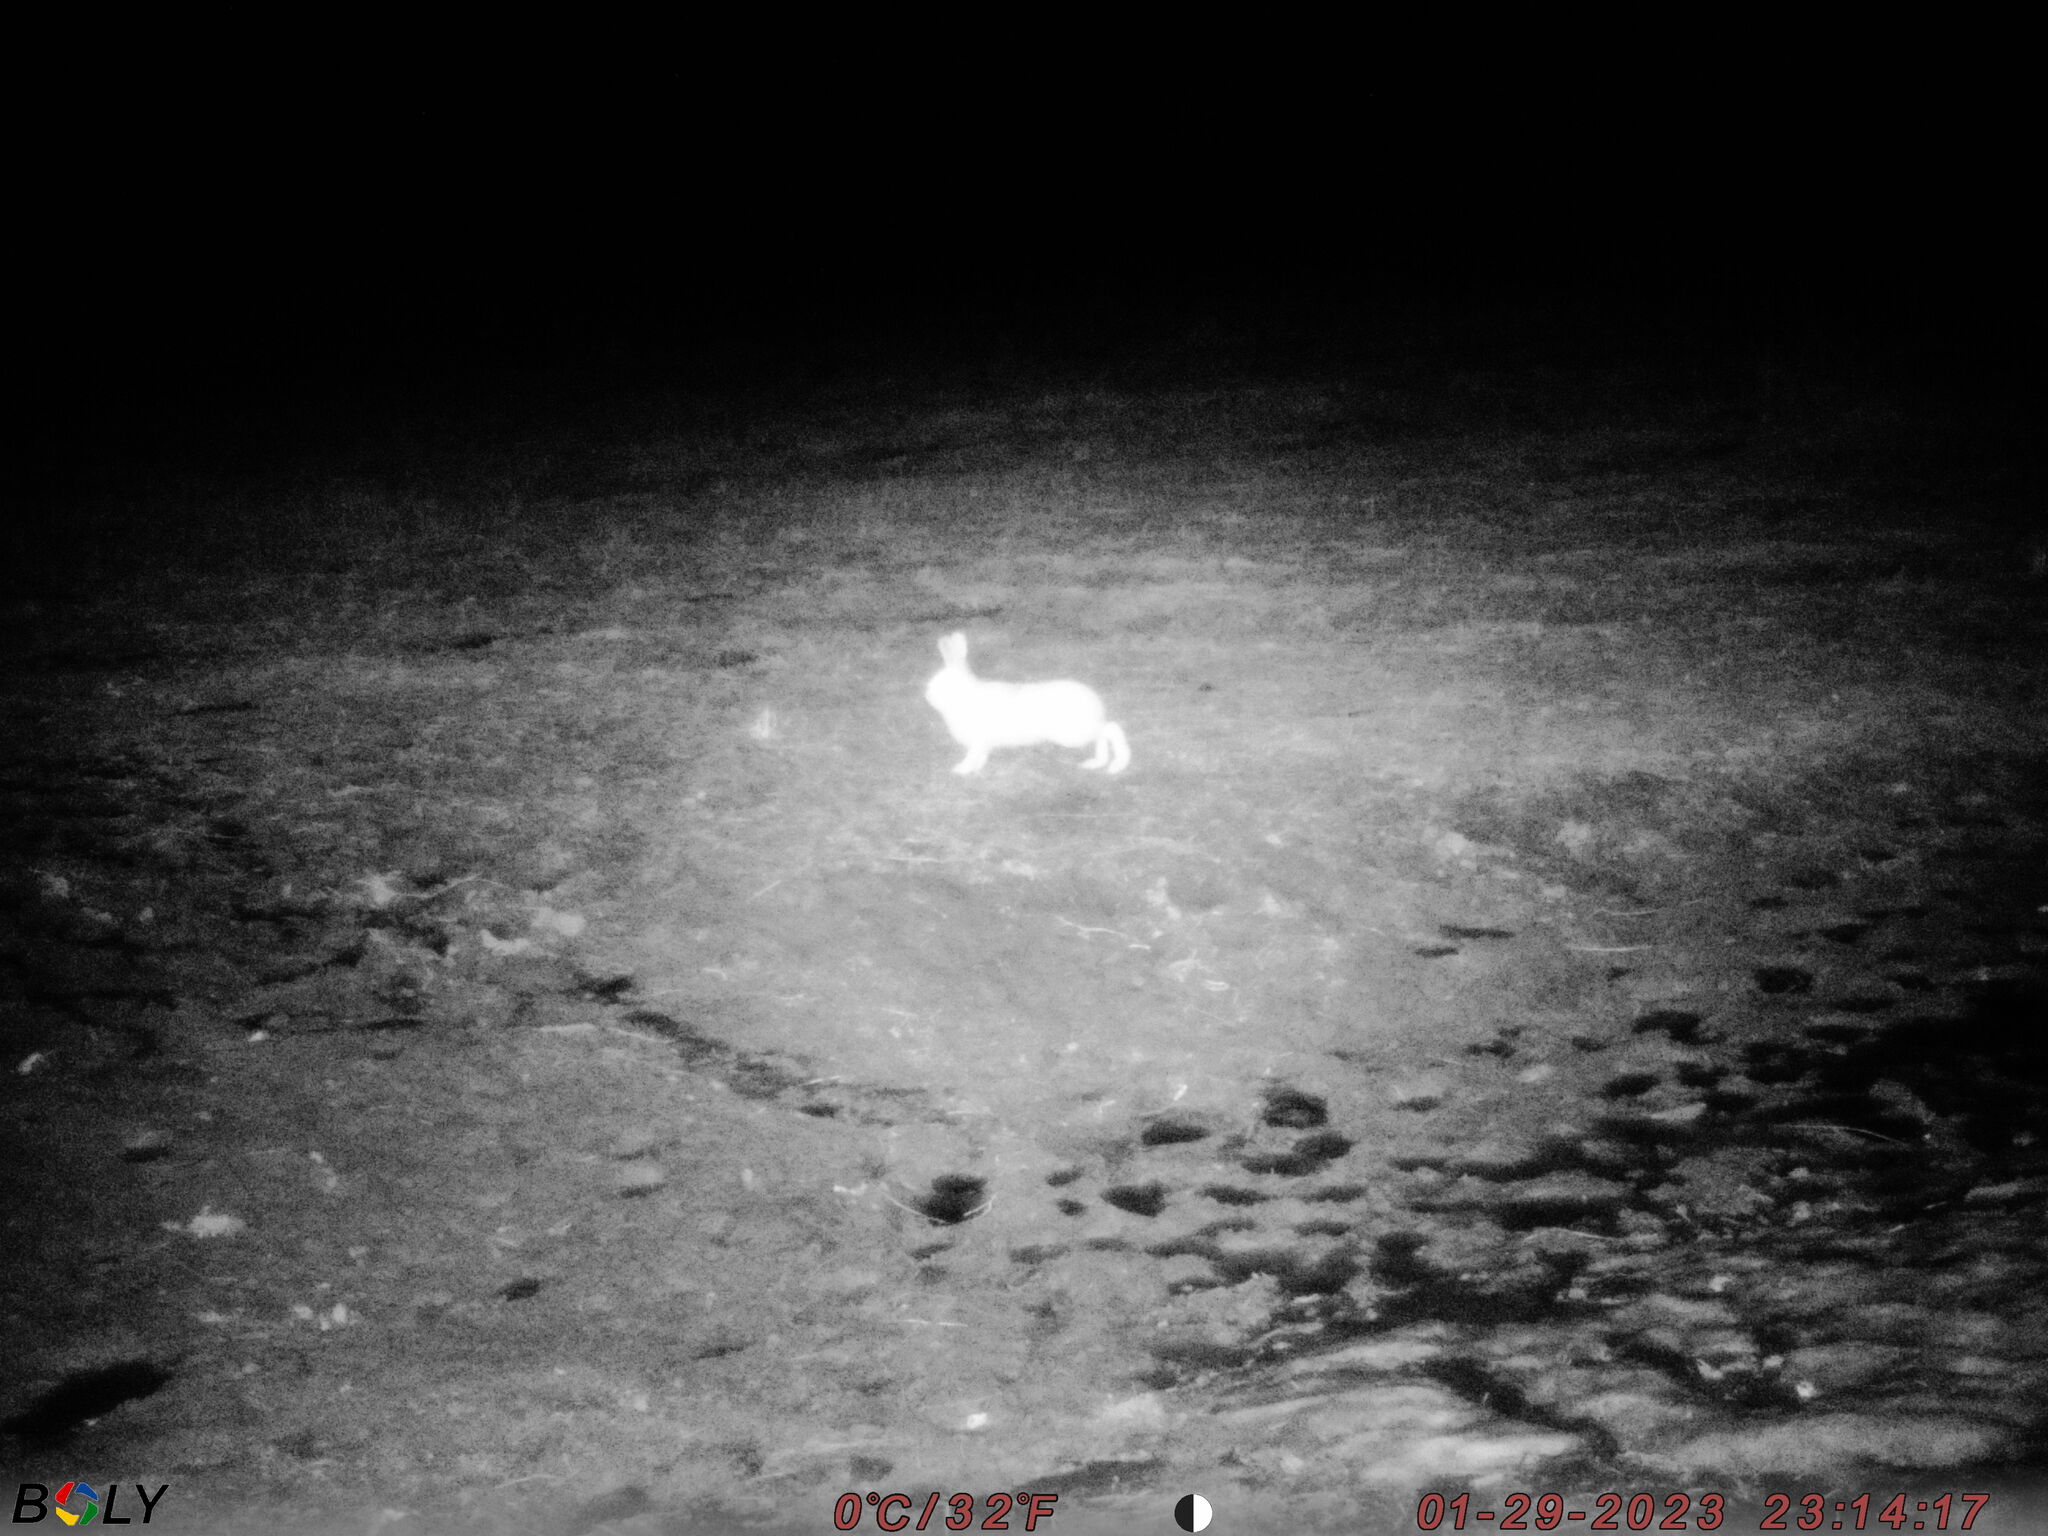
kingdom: Animalia
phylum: Chordata
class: Mammalia
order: Lagomorpha
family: Leporidae
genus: Lepus
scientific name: Lepus timidus
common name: Mountain hare
